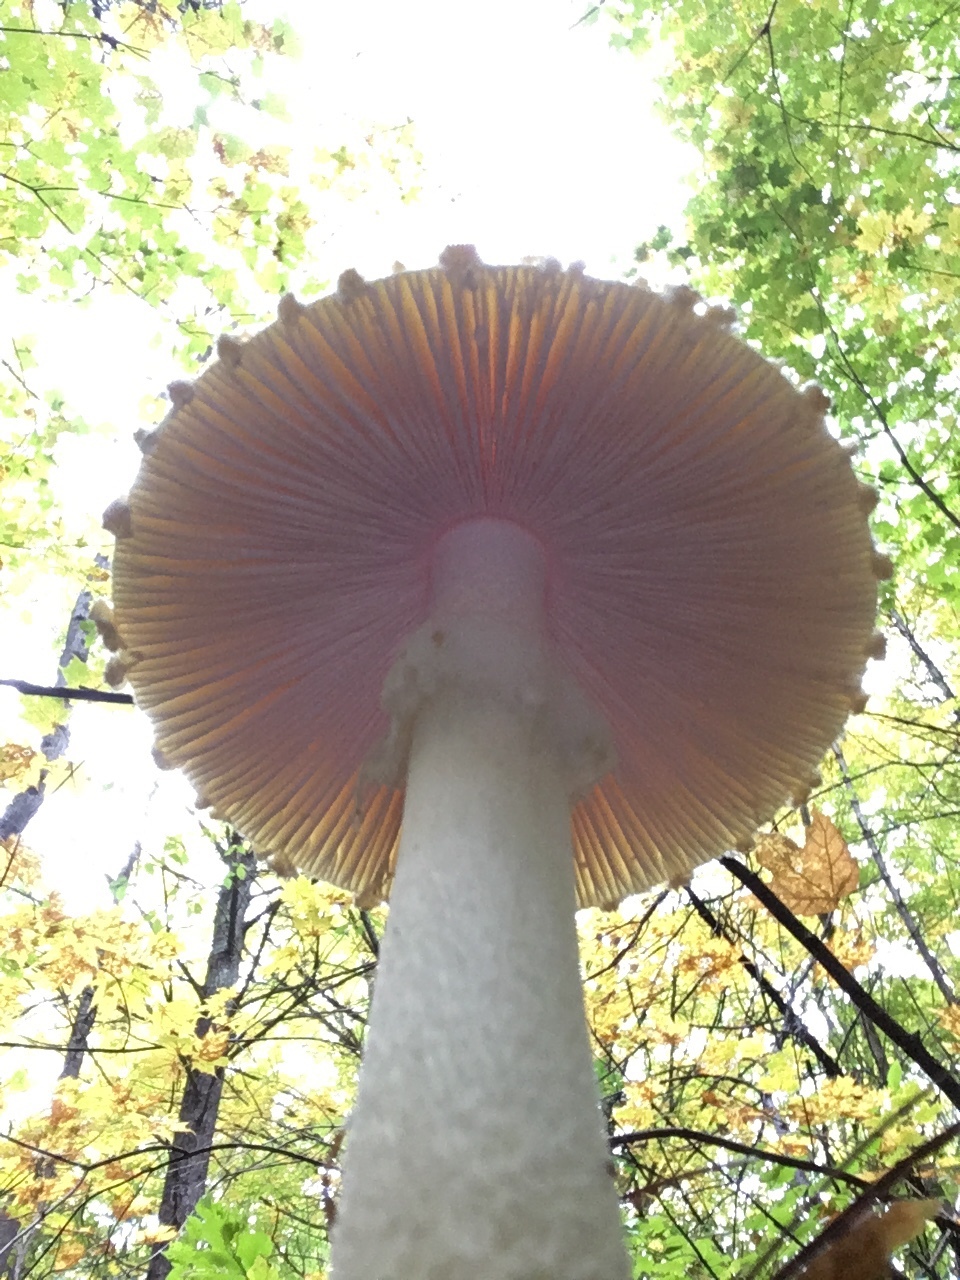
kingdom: Fungi
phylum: Basidiomycota
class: Agaricomycetes
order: Agaricales
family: Amanitaceae
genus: Amanita
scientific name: Amanita muscaria
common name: Fly agaric
